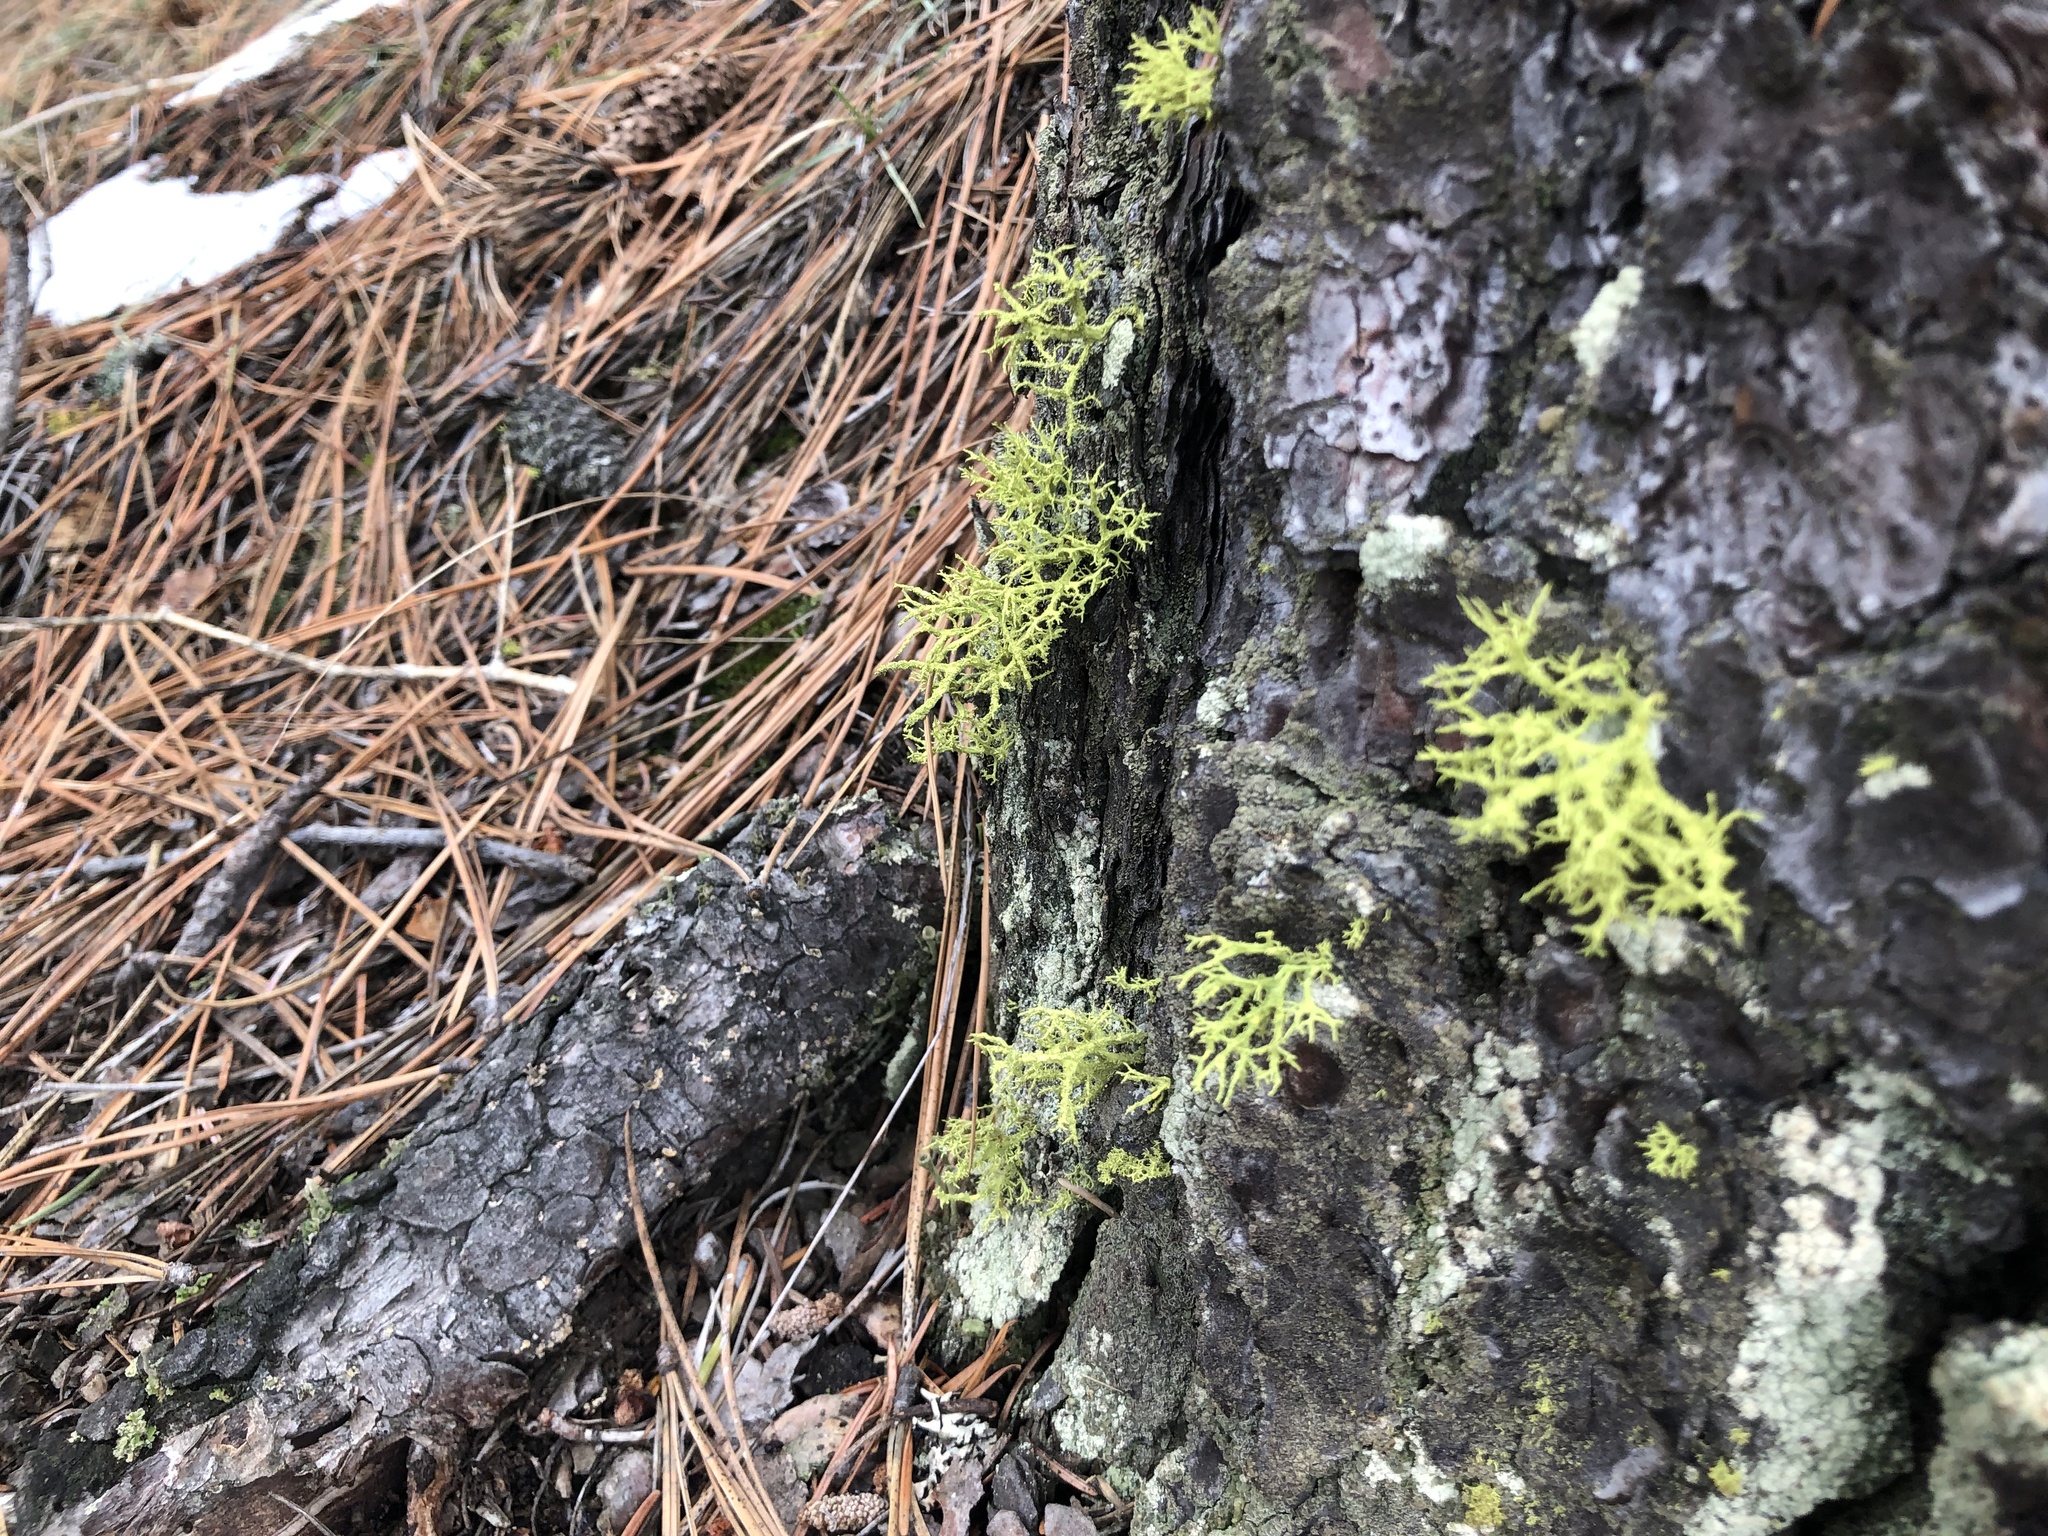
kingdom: Fungi
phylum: Ascomycota
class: Lecanoromycetes
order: Lecanorales
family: Parmeliaceae
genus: Letharia
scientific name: Letharia vulpina
